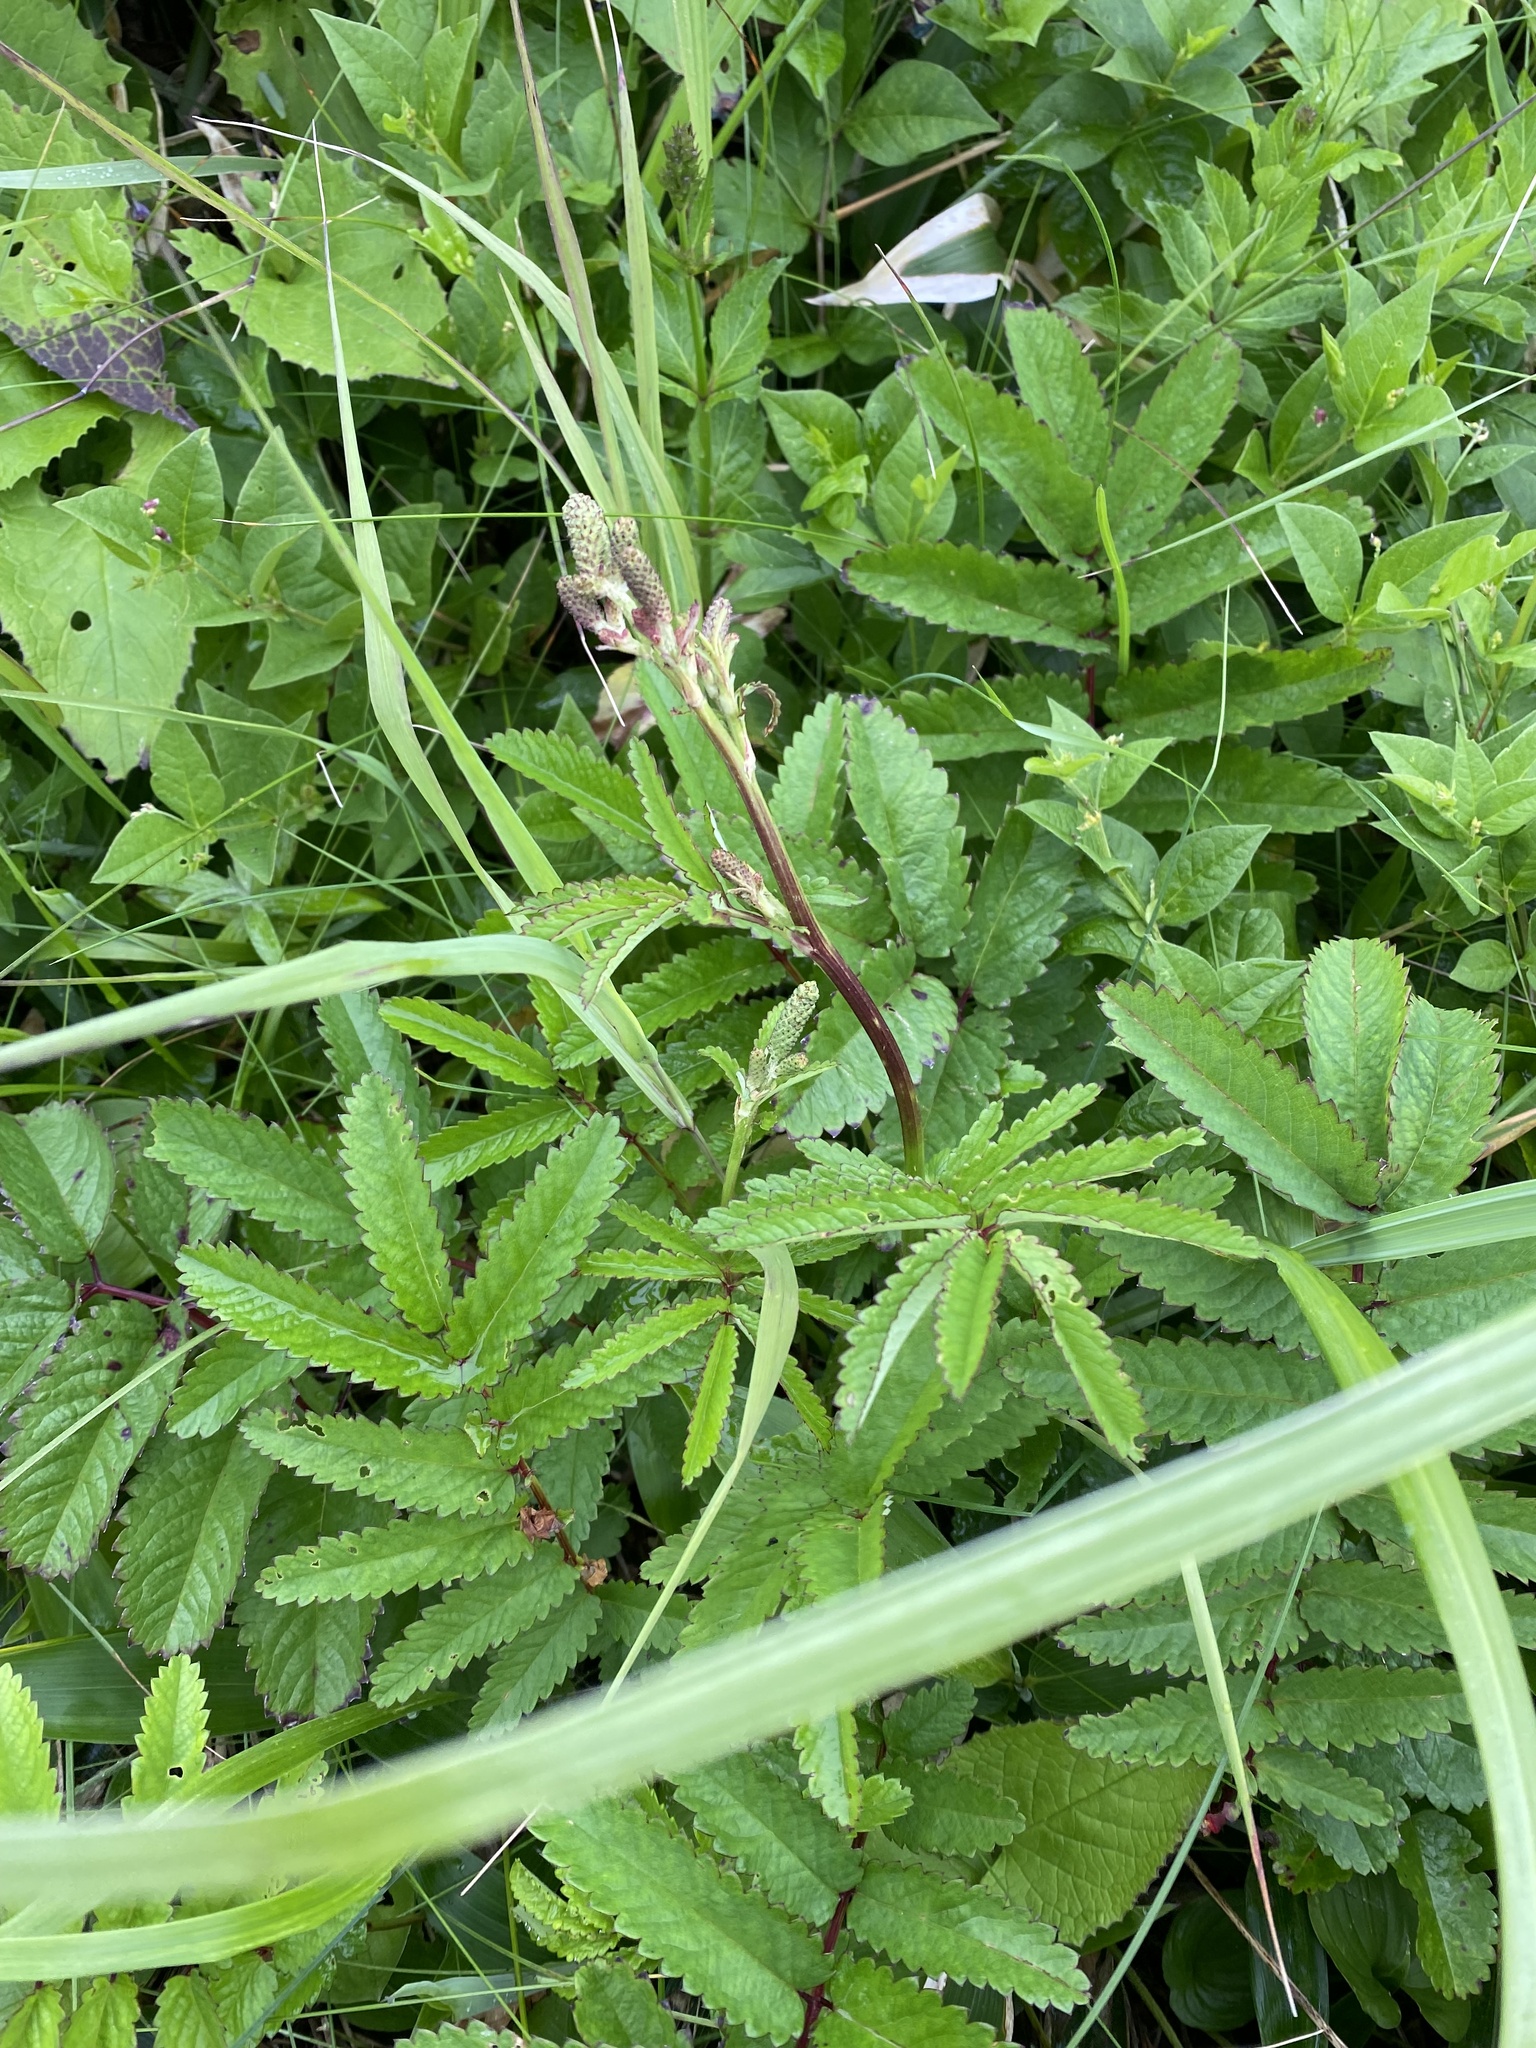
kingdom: Plantae
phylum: Tracheophyta
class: Magnoliopsida
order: Rosales
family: Rosaceae
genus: Poterium
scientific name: Poterium tenuifolium
